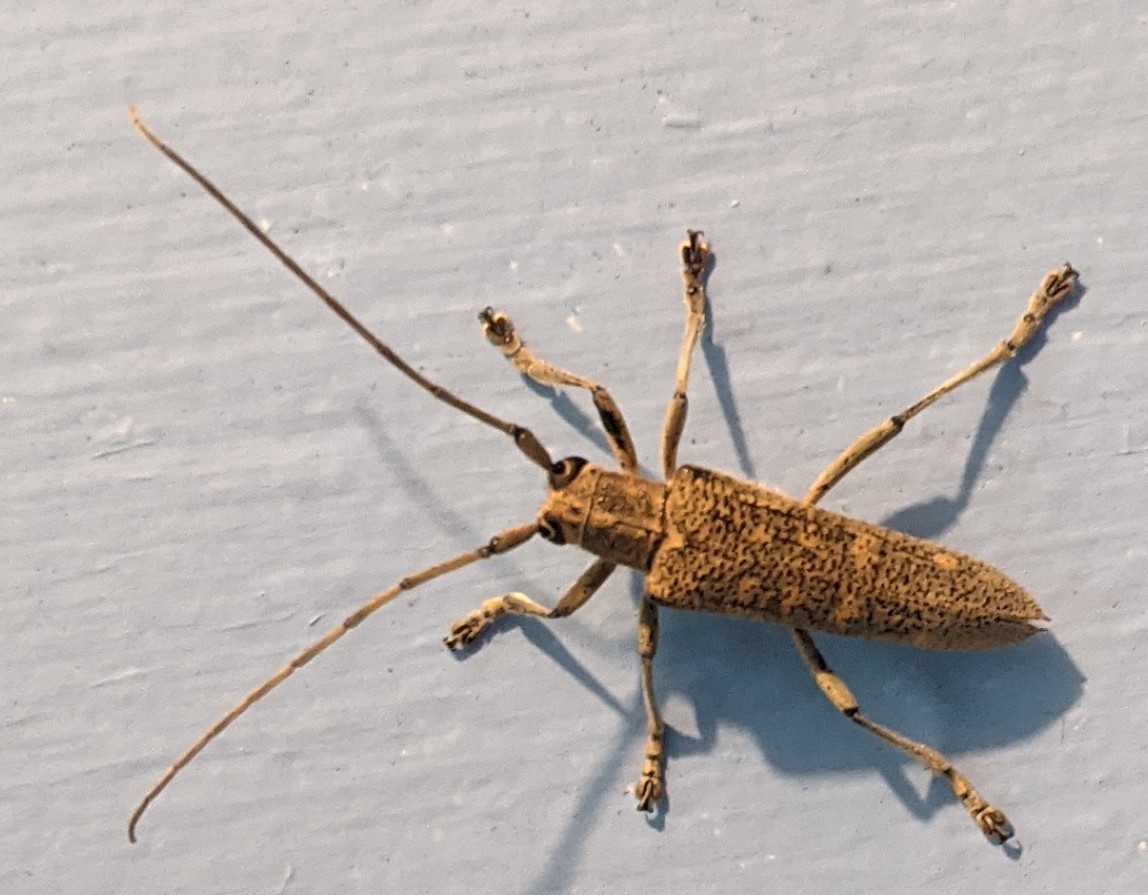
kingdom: Animalia
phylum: Arthropoda
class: Insecta
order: Coleoptera
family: Cerambycidae
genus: Saperda
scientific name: Saperda calcarata
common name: Poplar borer
